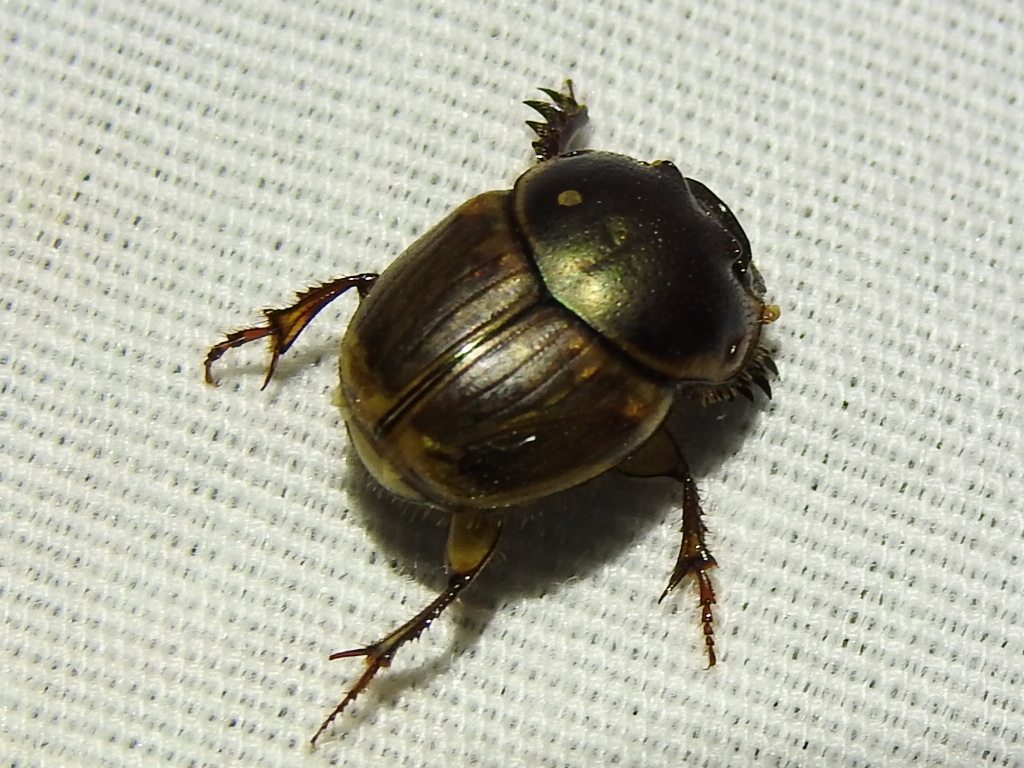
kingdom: Animalia
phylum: Arthropoda
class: Insecta
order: Coleoptera
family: Scarabaeidae
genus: Digitonthophagus
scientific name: Digitonthophagus gazella
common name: Brown dung beetle
